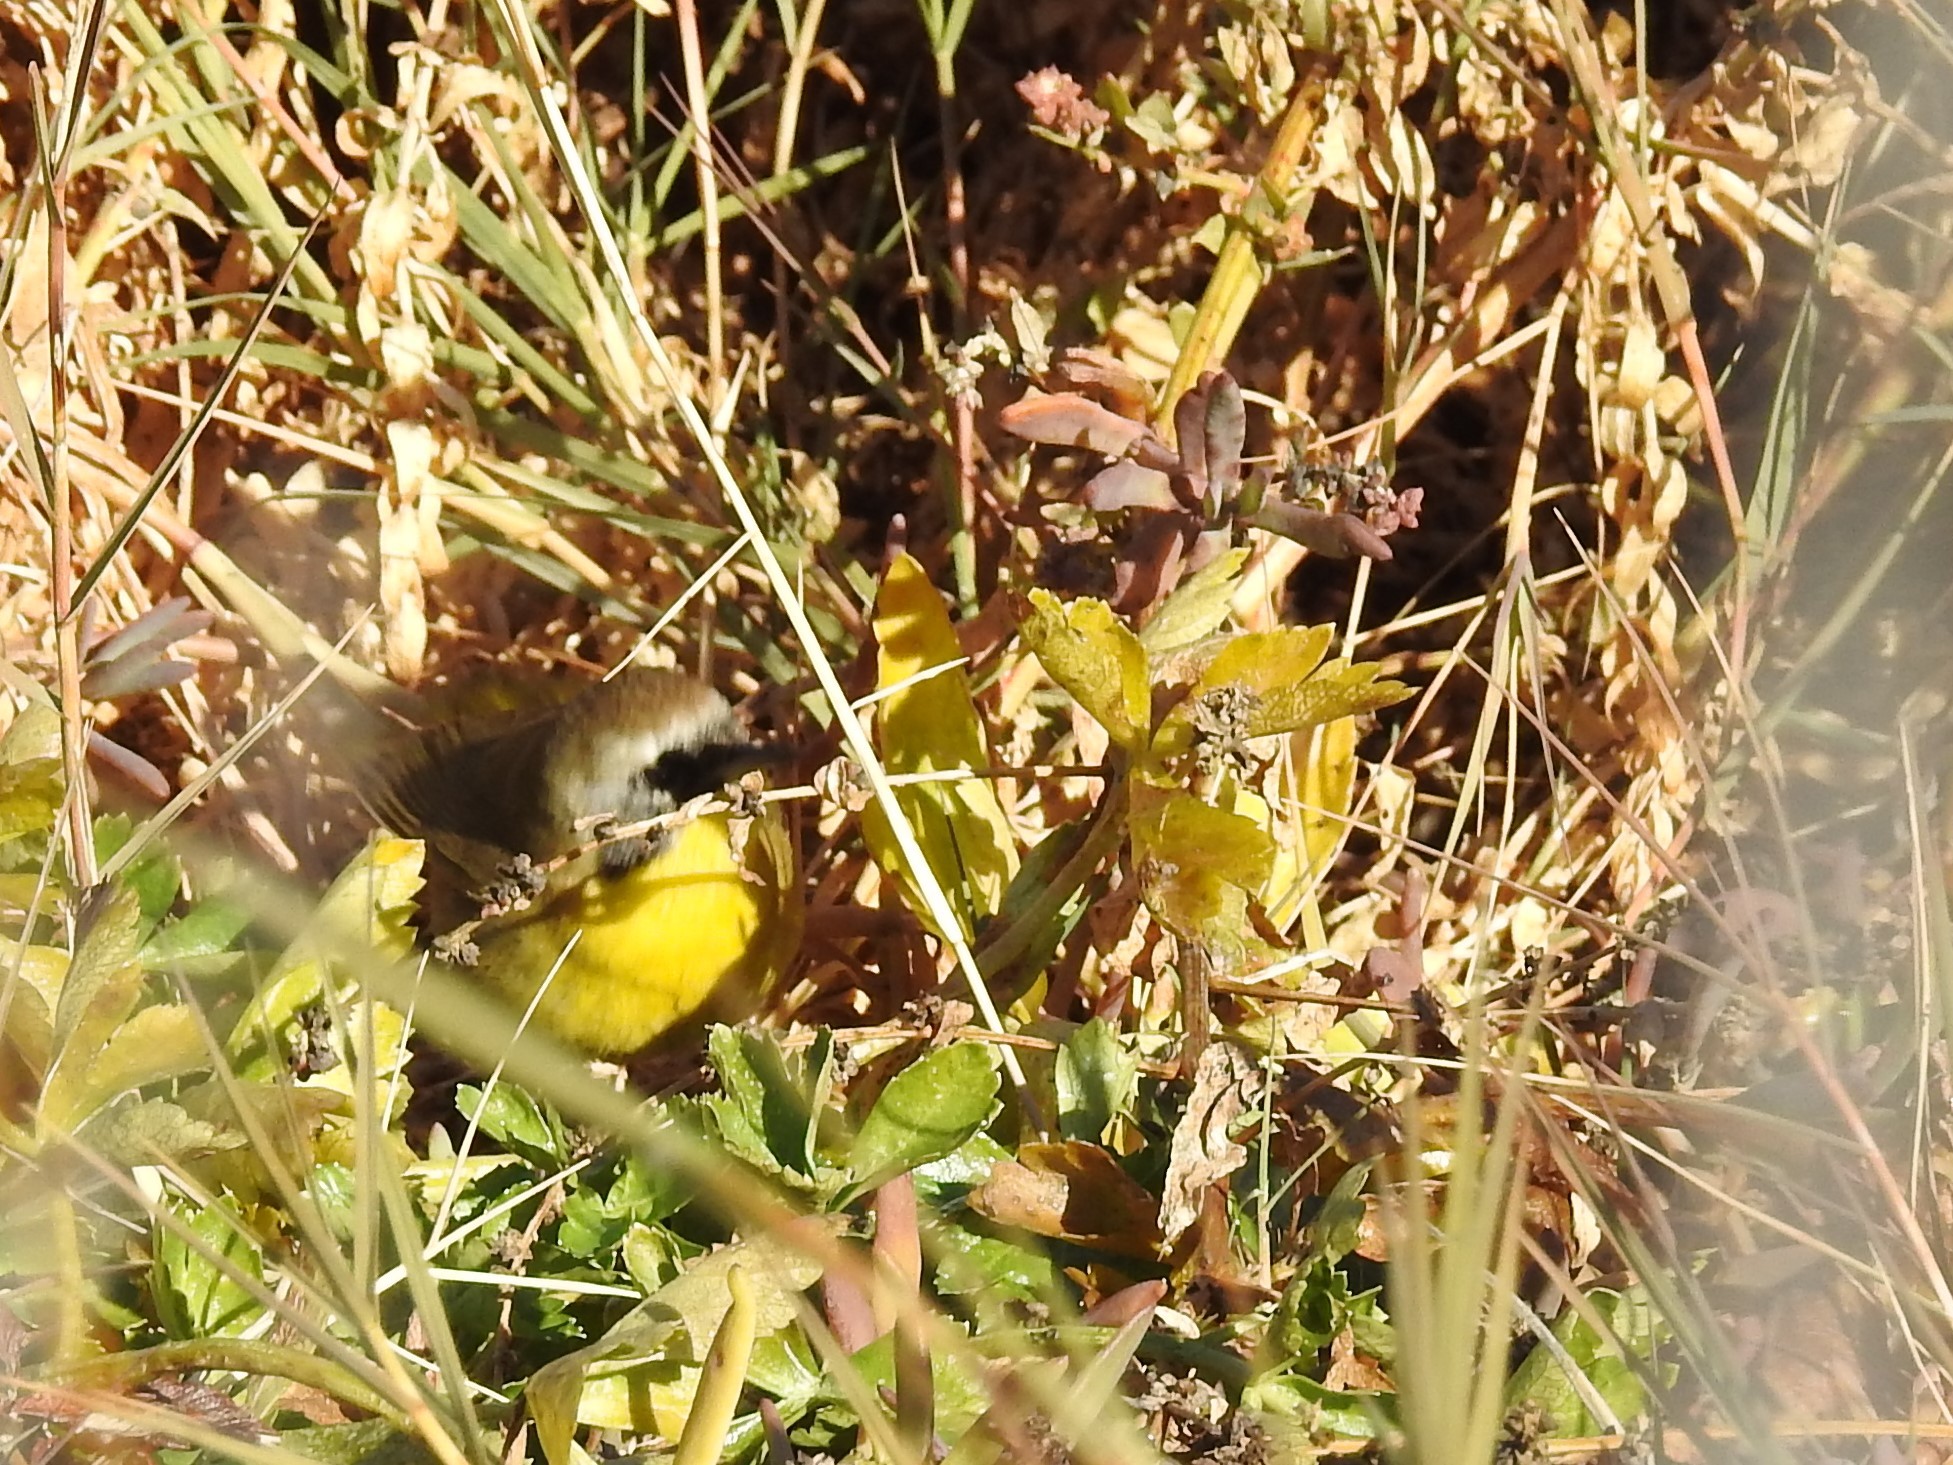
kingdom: Animalia
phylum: Chordata
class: Aves
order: Passeriformes
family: Parulidae
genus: Geothlypis
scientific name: Geothlypis trichas
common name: Common yellowthroat
